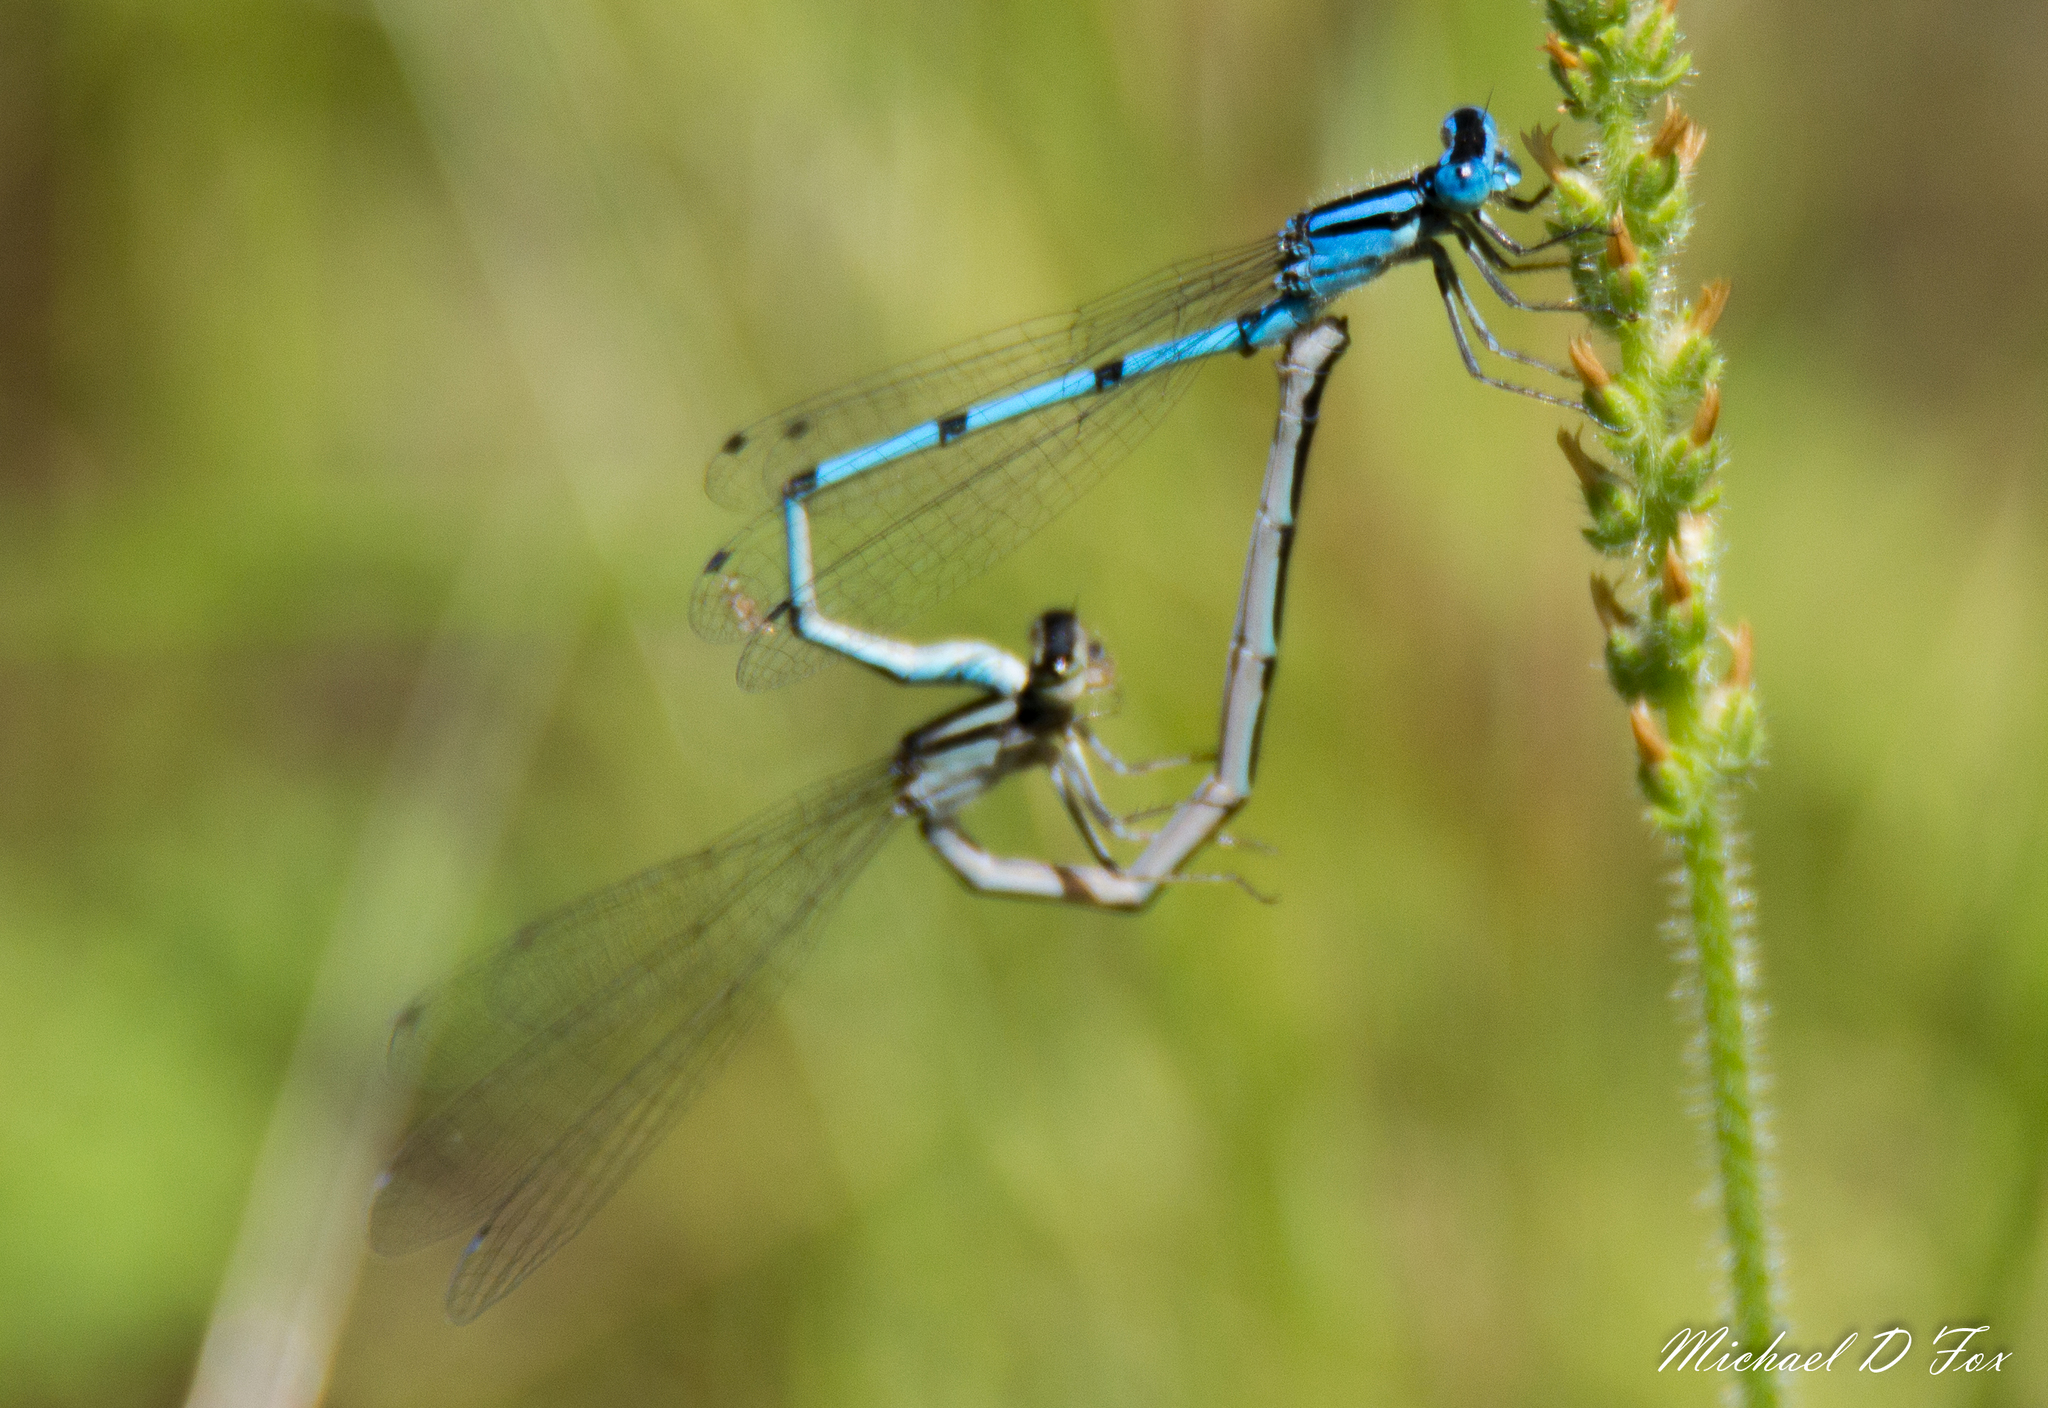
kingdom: Animalia
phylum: Arthropoda
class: Insecta
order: Odonata
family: Coenagrionidae
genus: Enallagma
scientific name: Enallagma doubledayi
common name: Atlantic bluet
